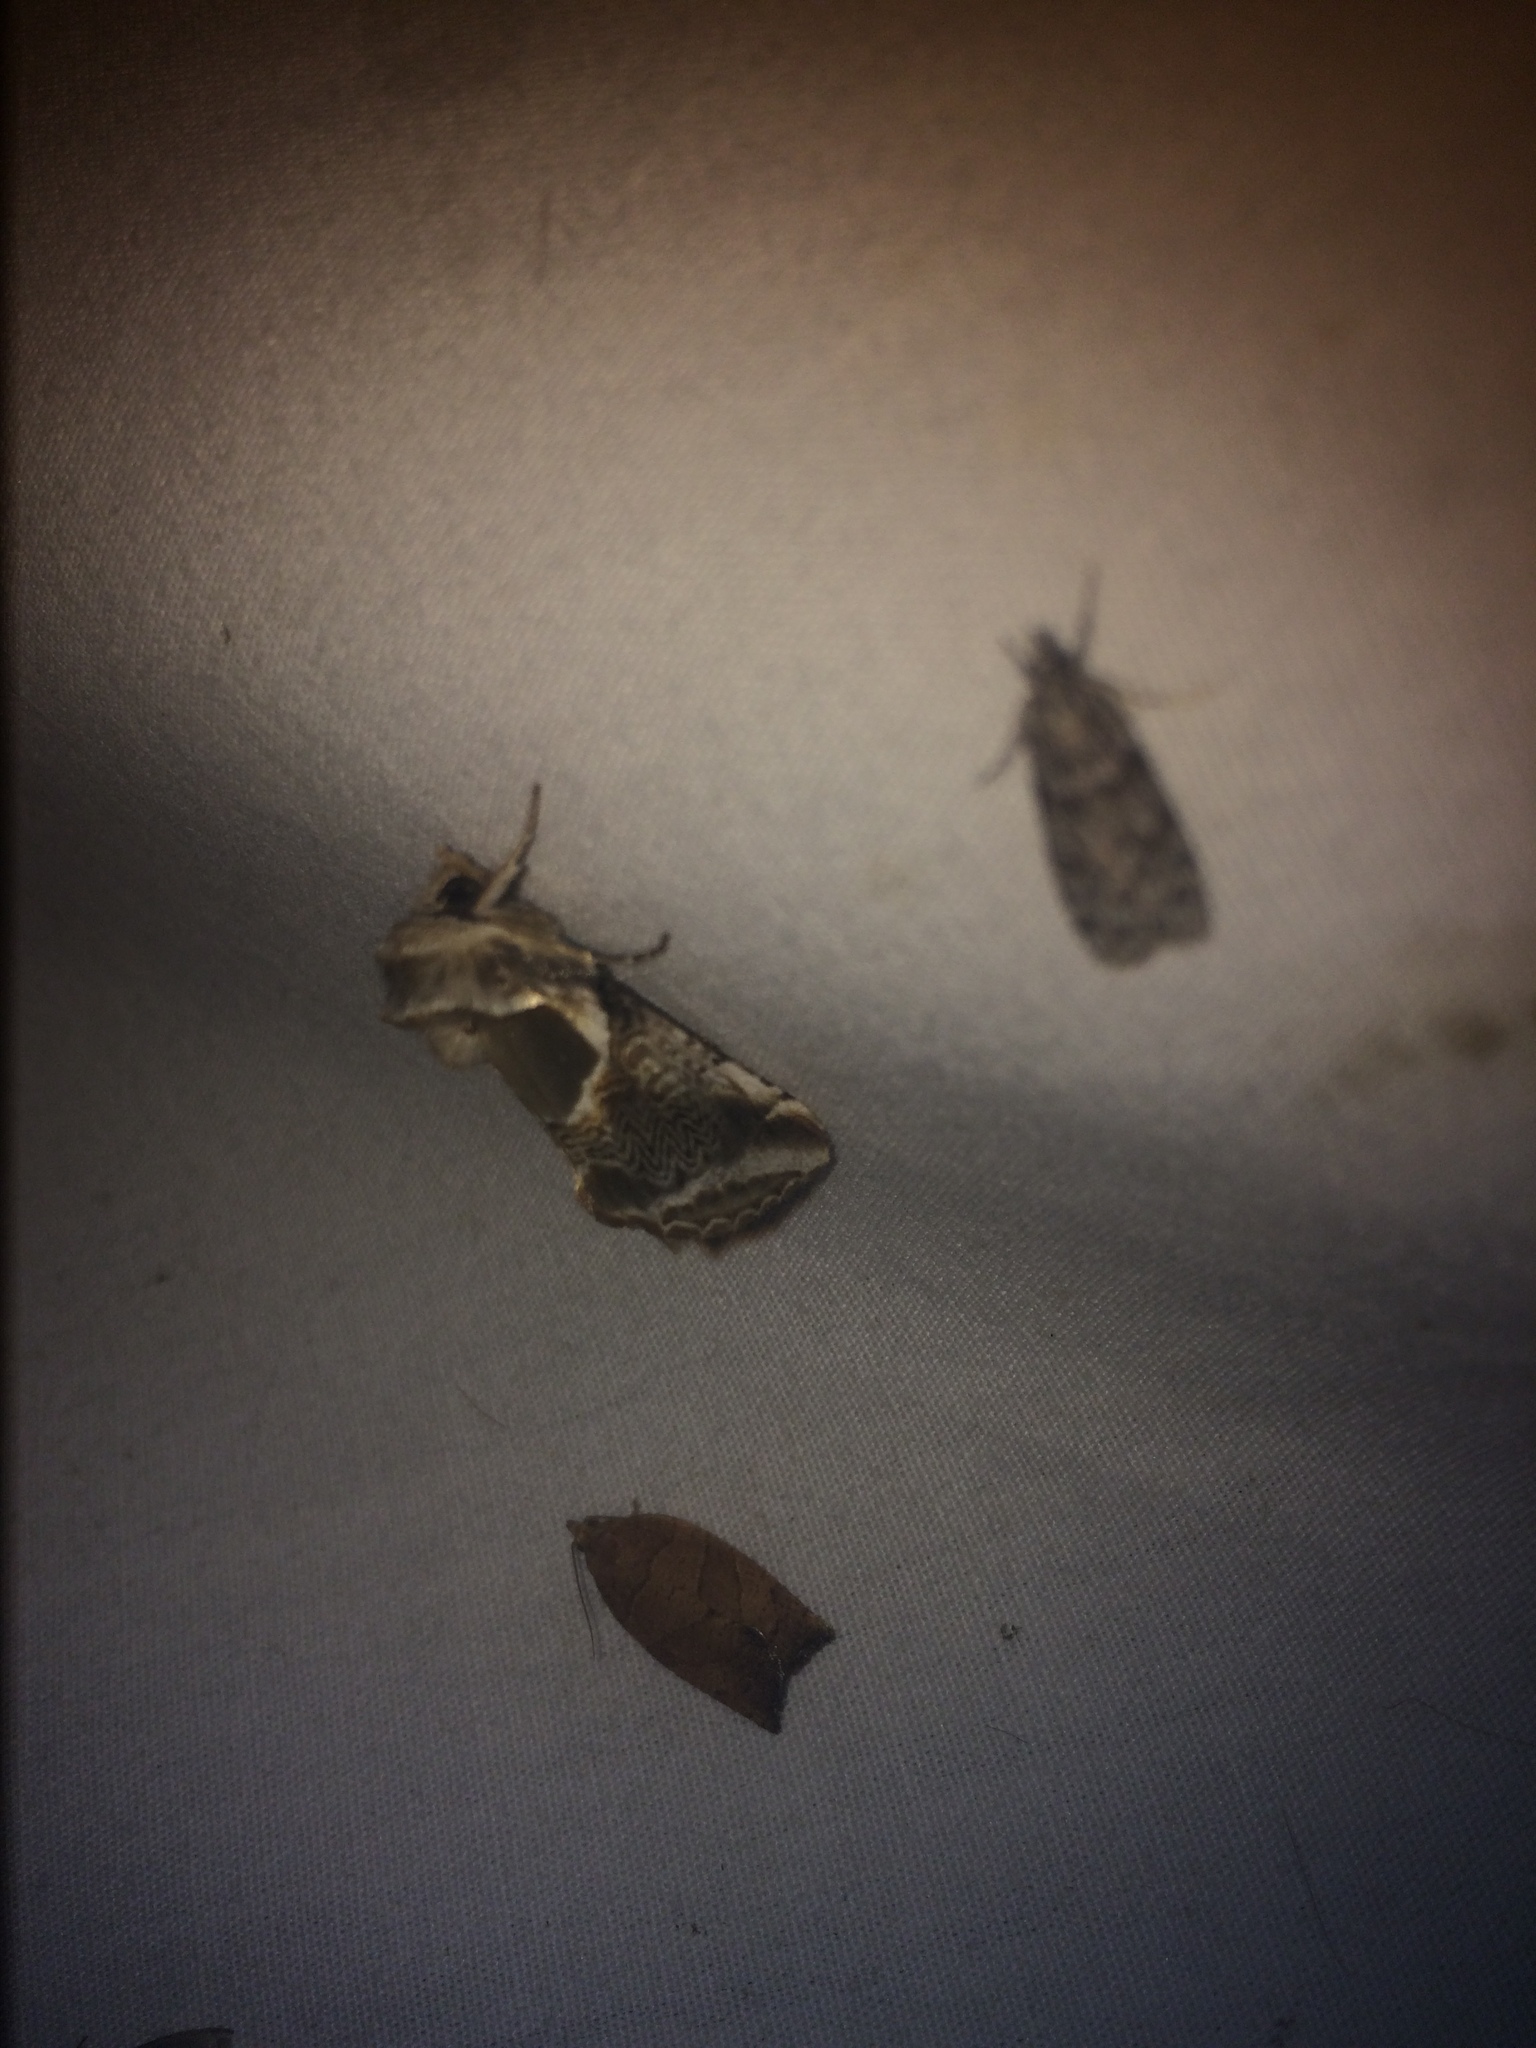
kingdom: Animalia
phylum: Arthropoda
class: Insecta
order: Lepidoptera
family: Drepanidae
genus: Habrosyne
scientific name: Habrosyne scripta
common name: Lettered habrosyne moth
